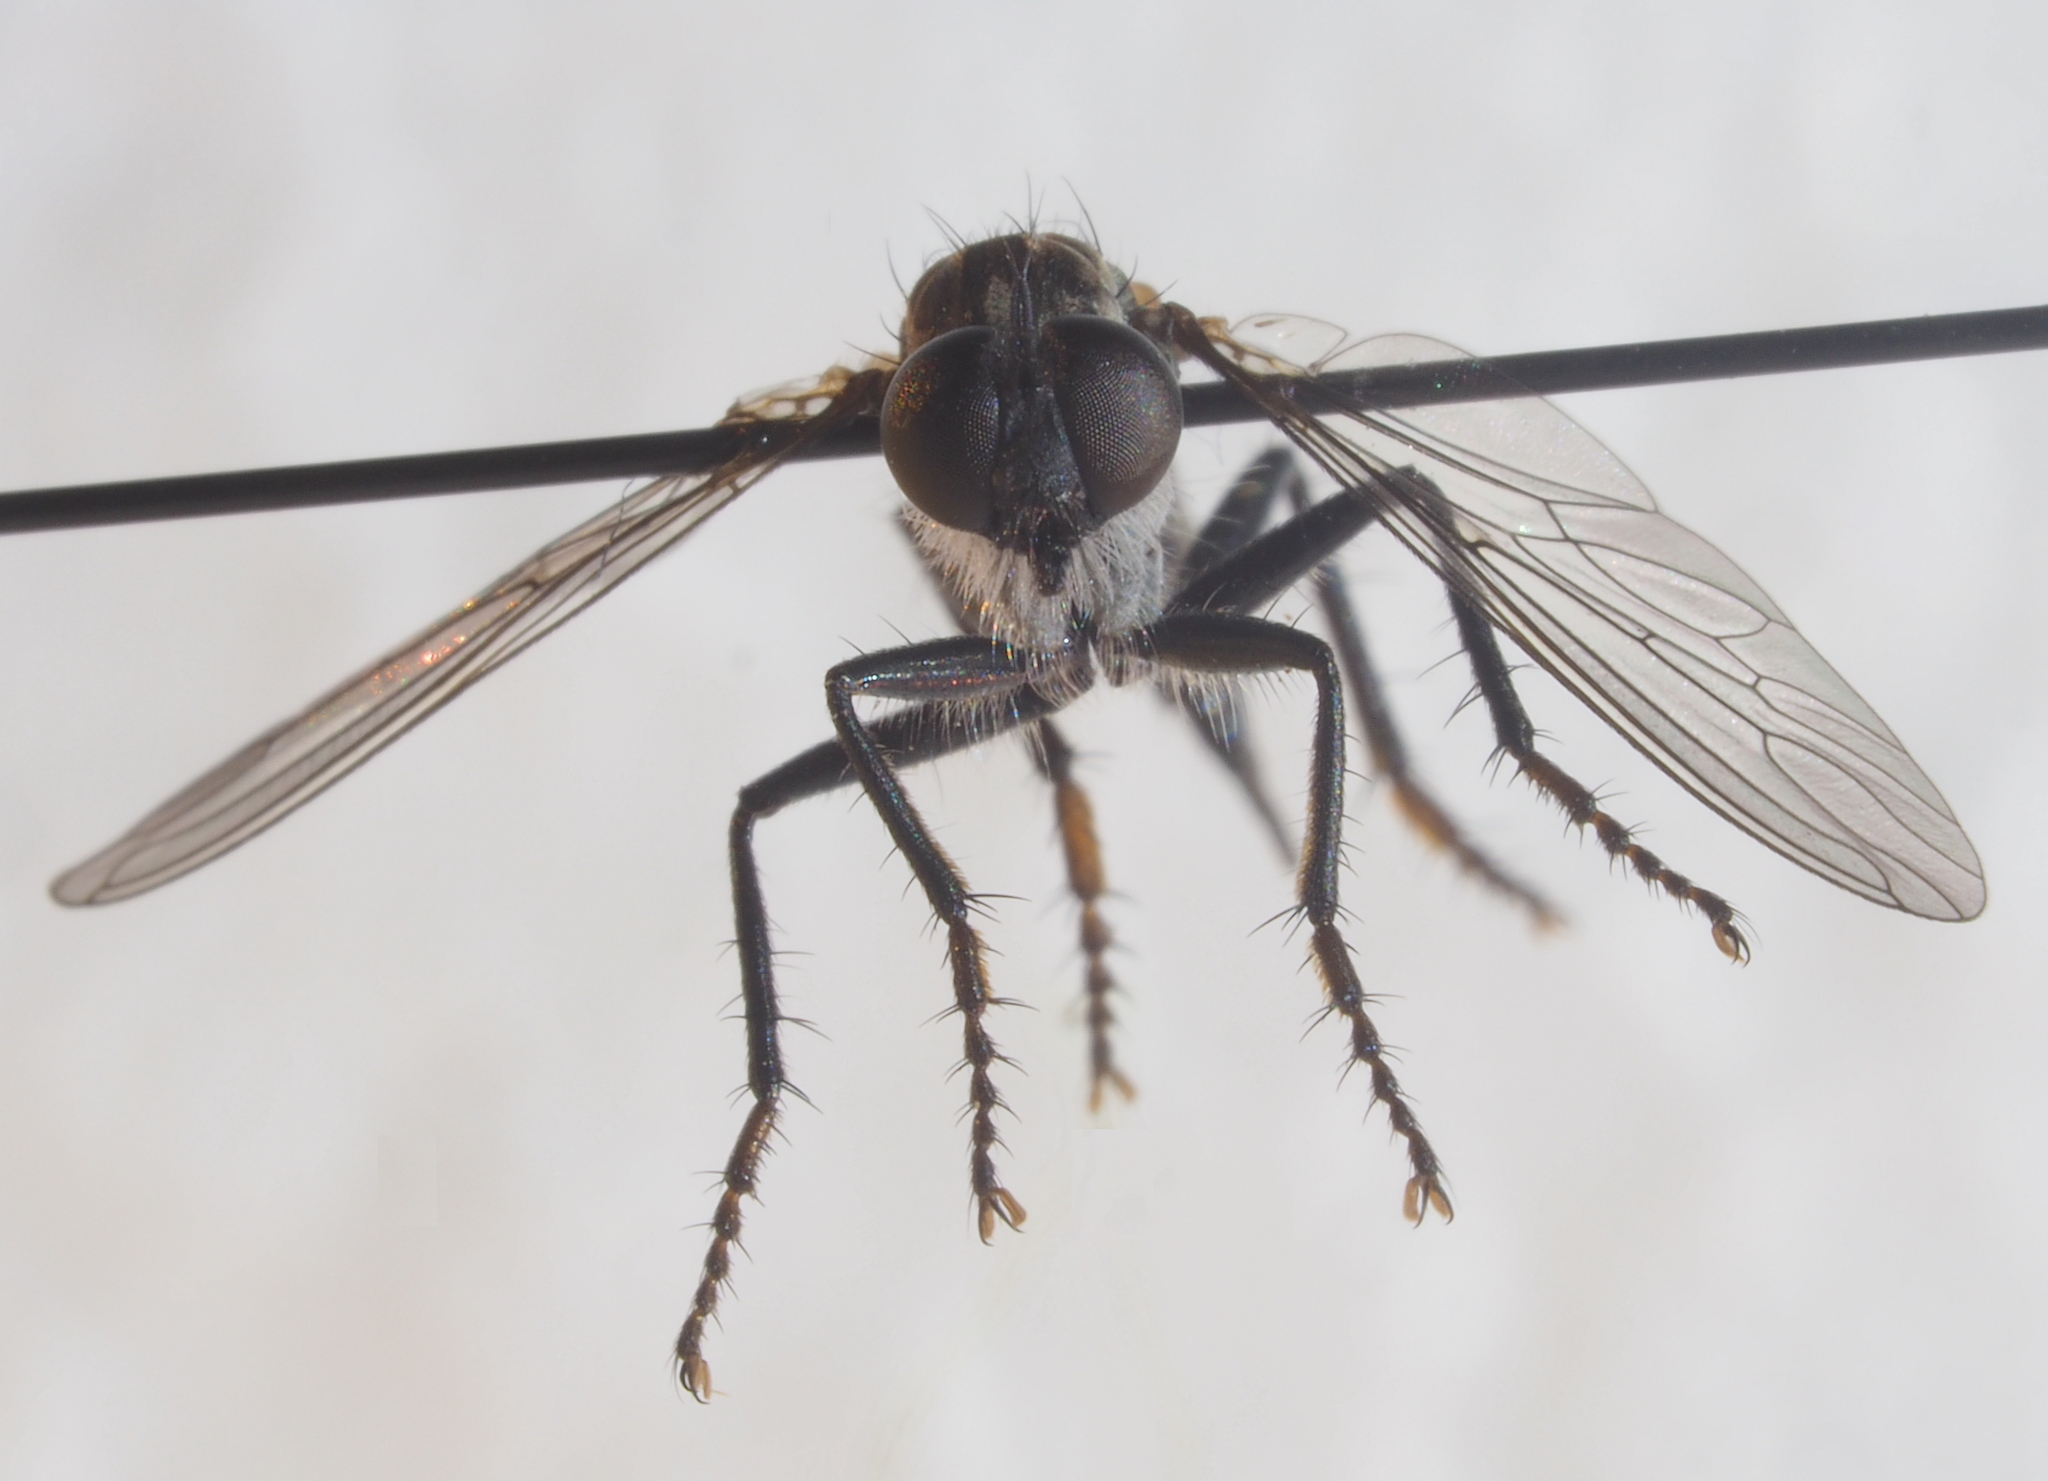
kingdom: Animalia
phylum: Arthropoda
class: Insecta
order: Diptera
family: Asilidae
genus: Machimus
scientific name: Machimus atripes
